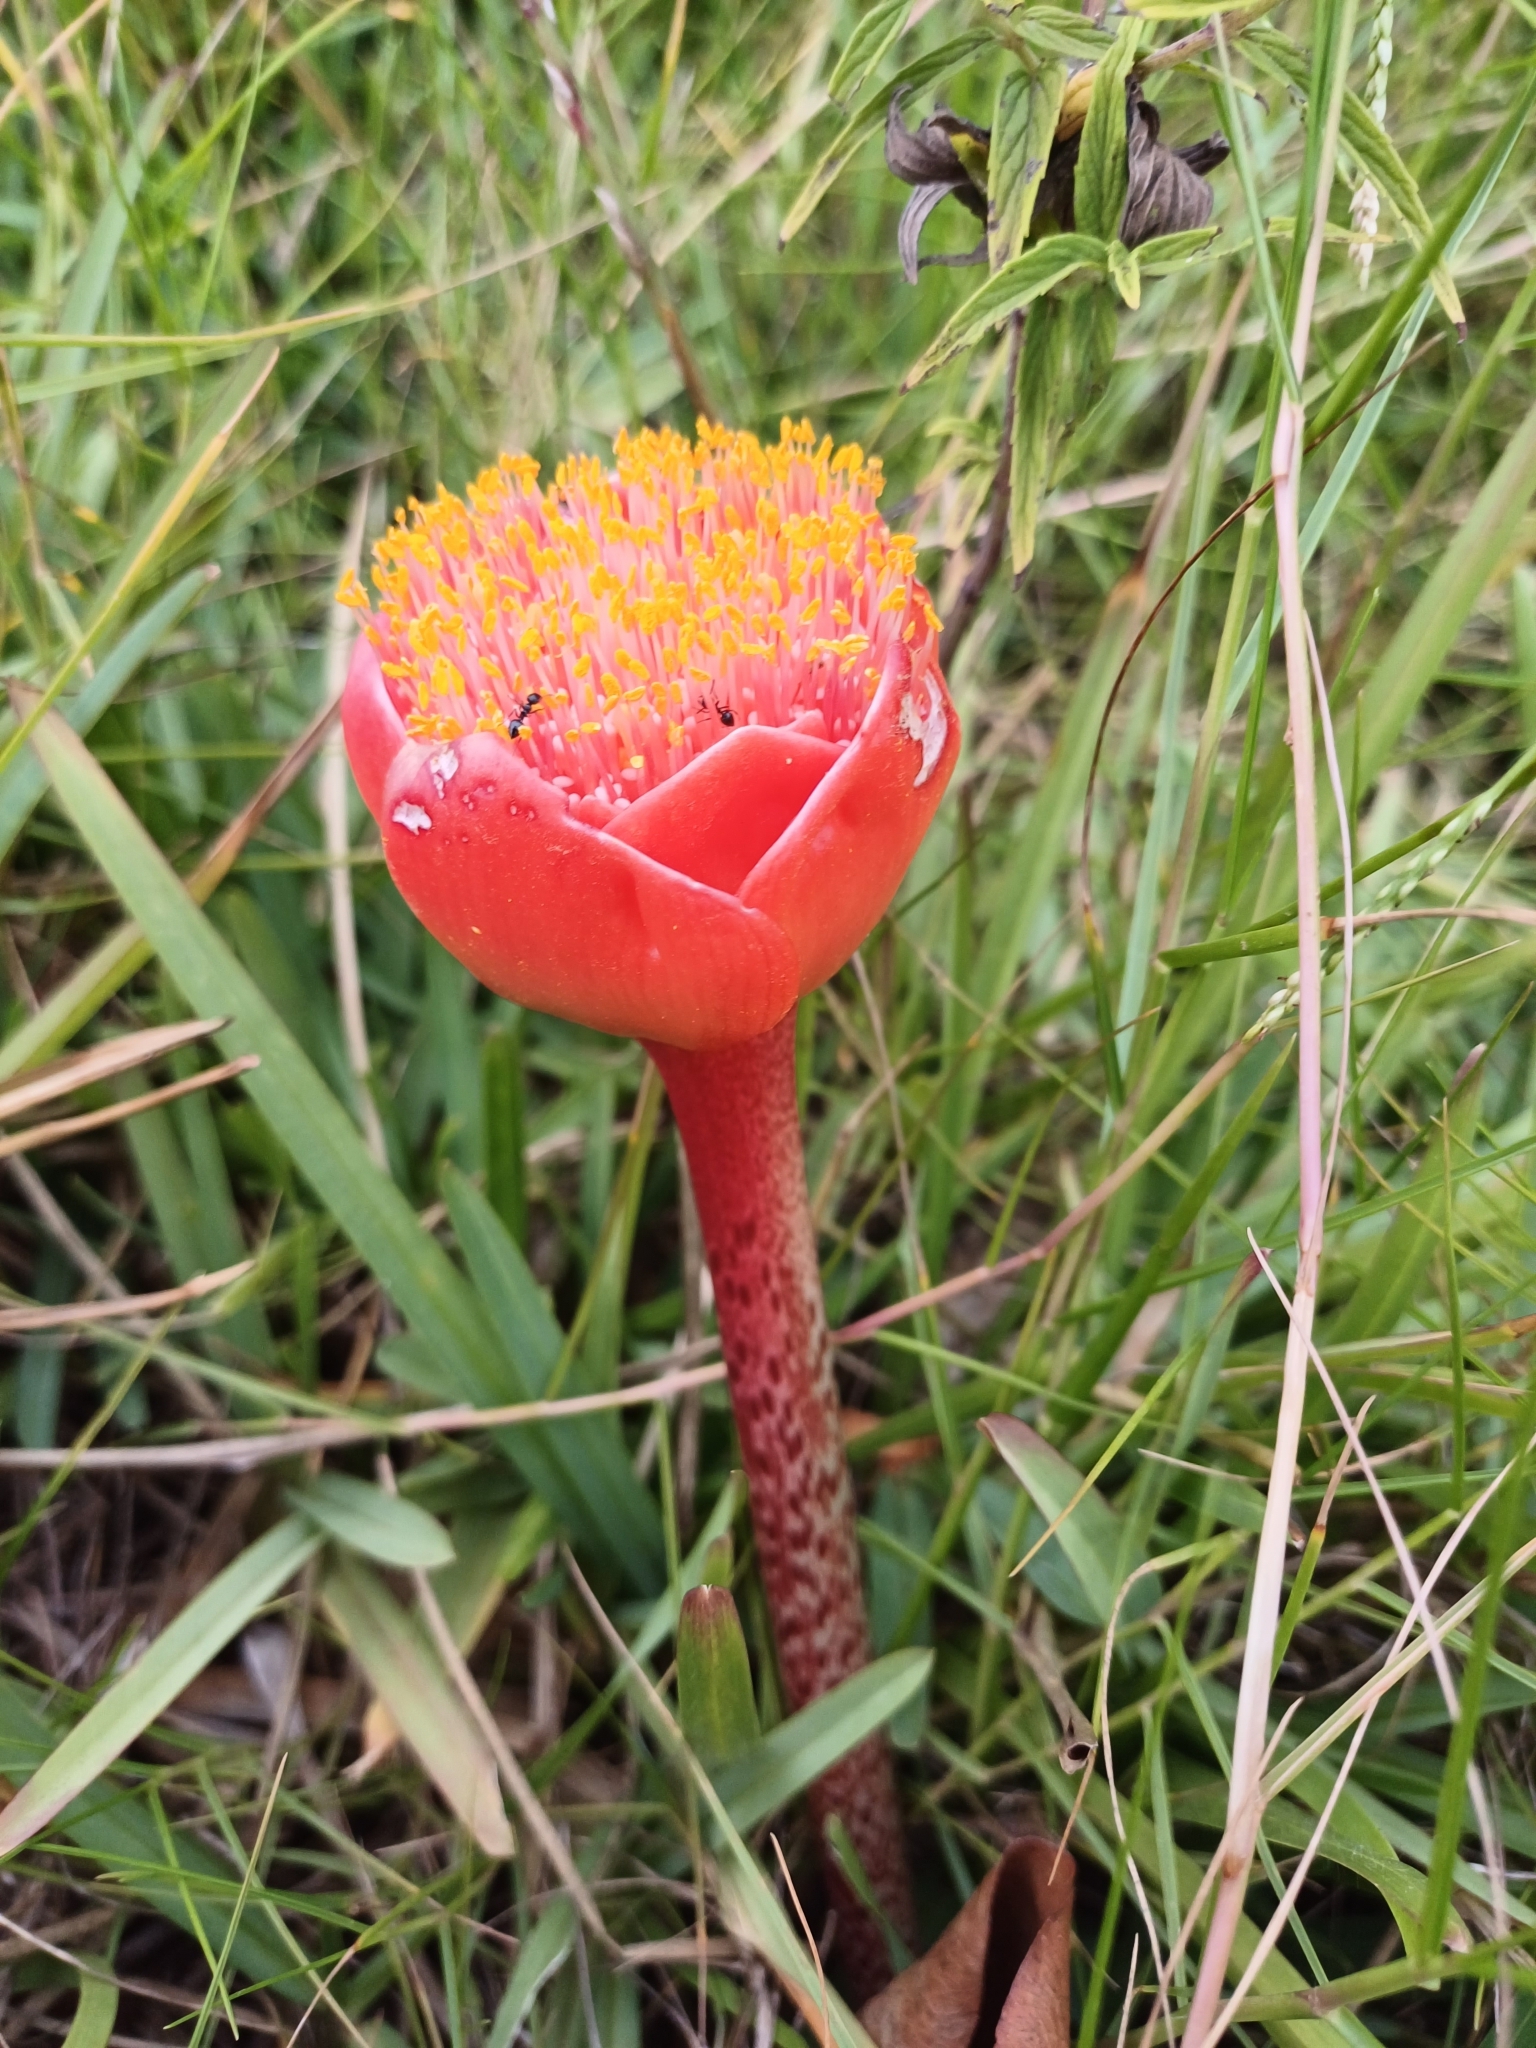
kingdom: Plantae
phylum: Tracheophyta
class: Liliopsida
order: Asparagales
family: Amaryllidaceae
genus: Haemanthus
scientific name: Haemanthus coccineus
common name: Cape-tulip
